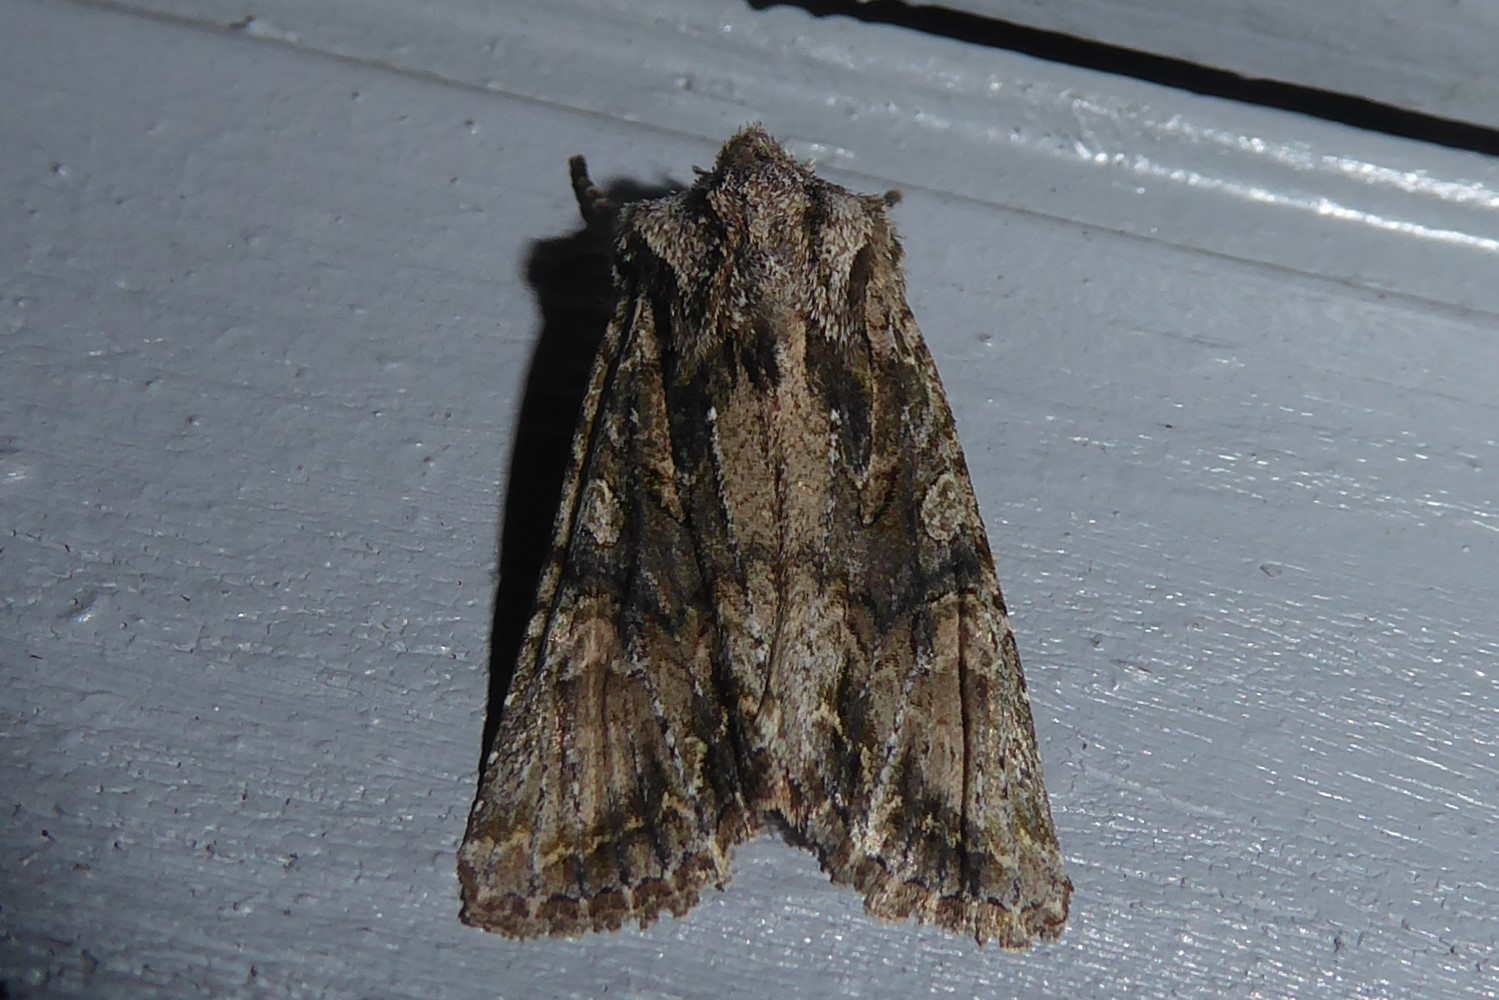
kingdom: Animalia
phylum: Arthropoda
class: Insecta
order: Lepidoptera
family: Noctuidae
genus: Ichneutica
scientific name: Ichneutica mutans
